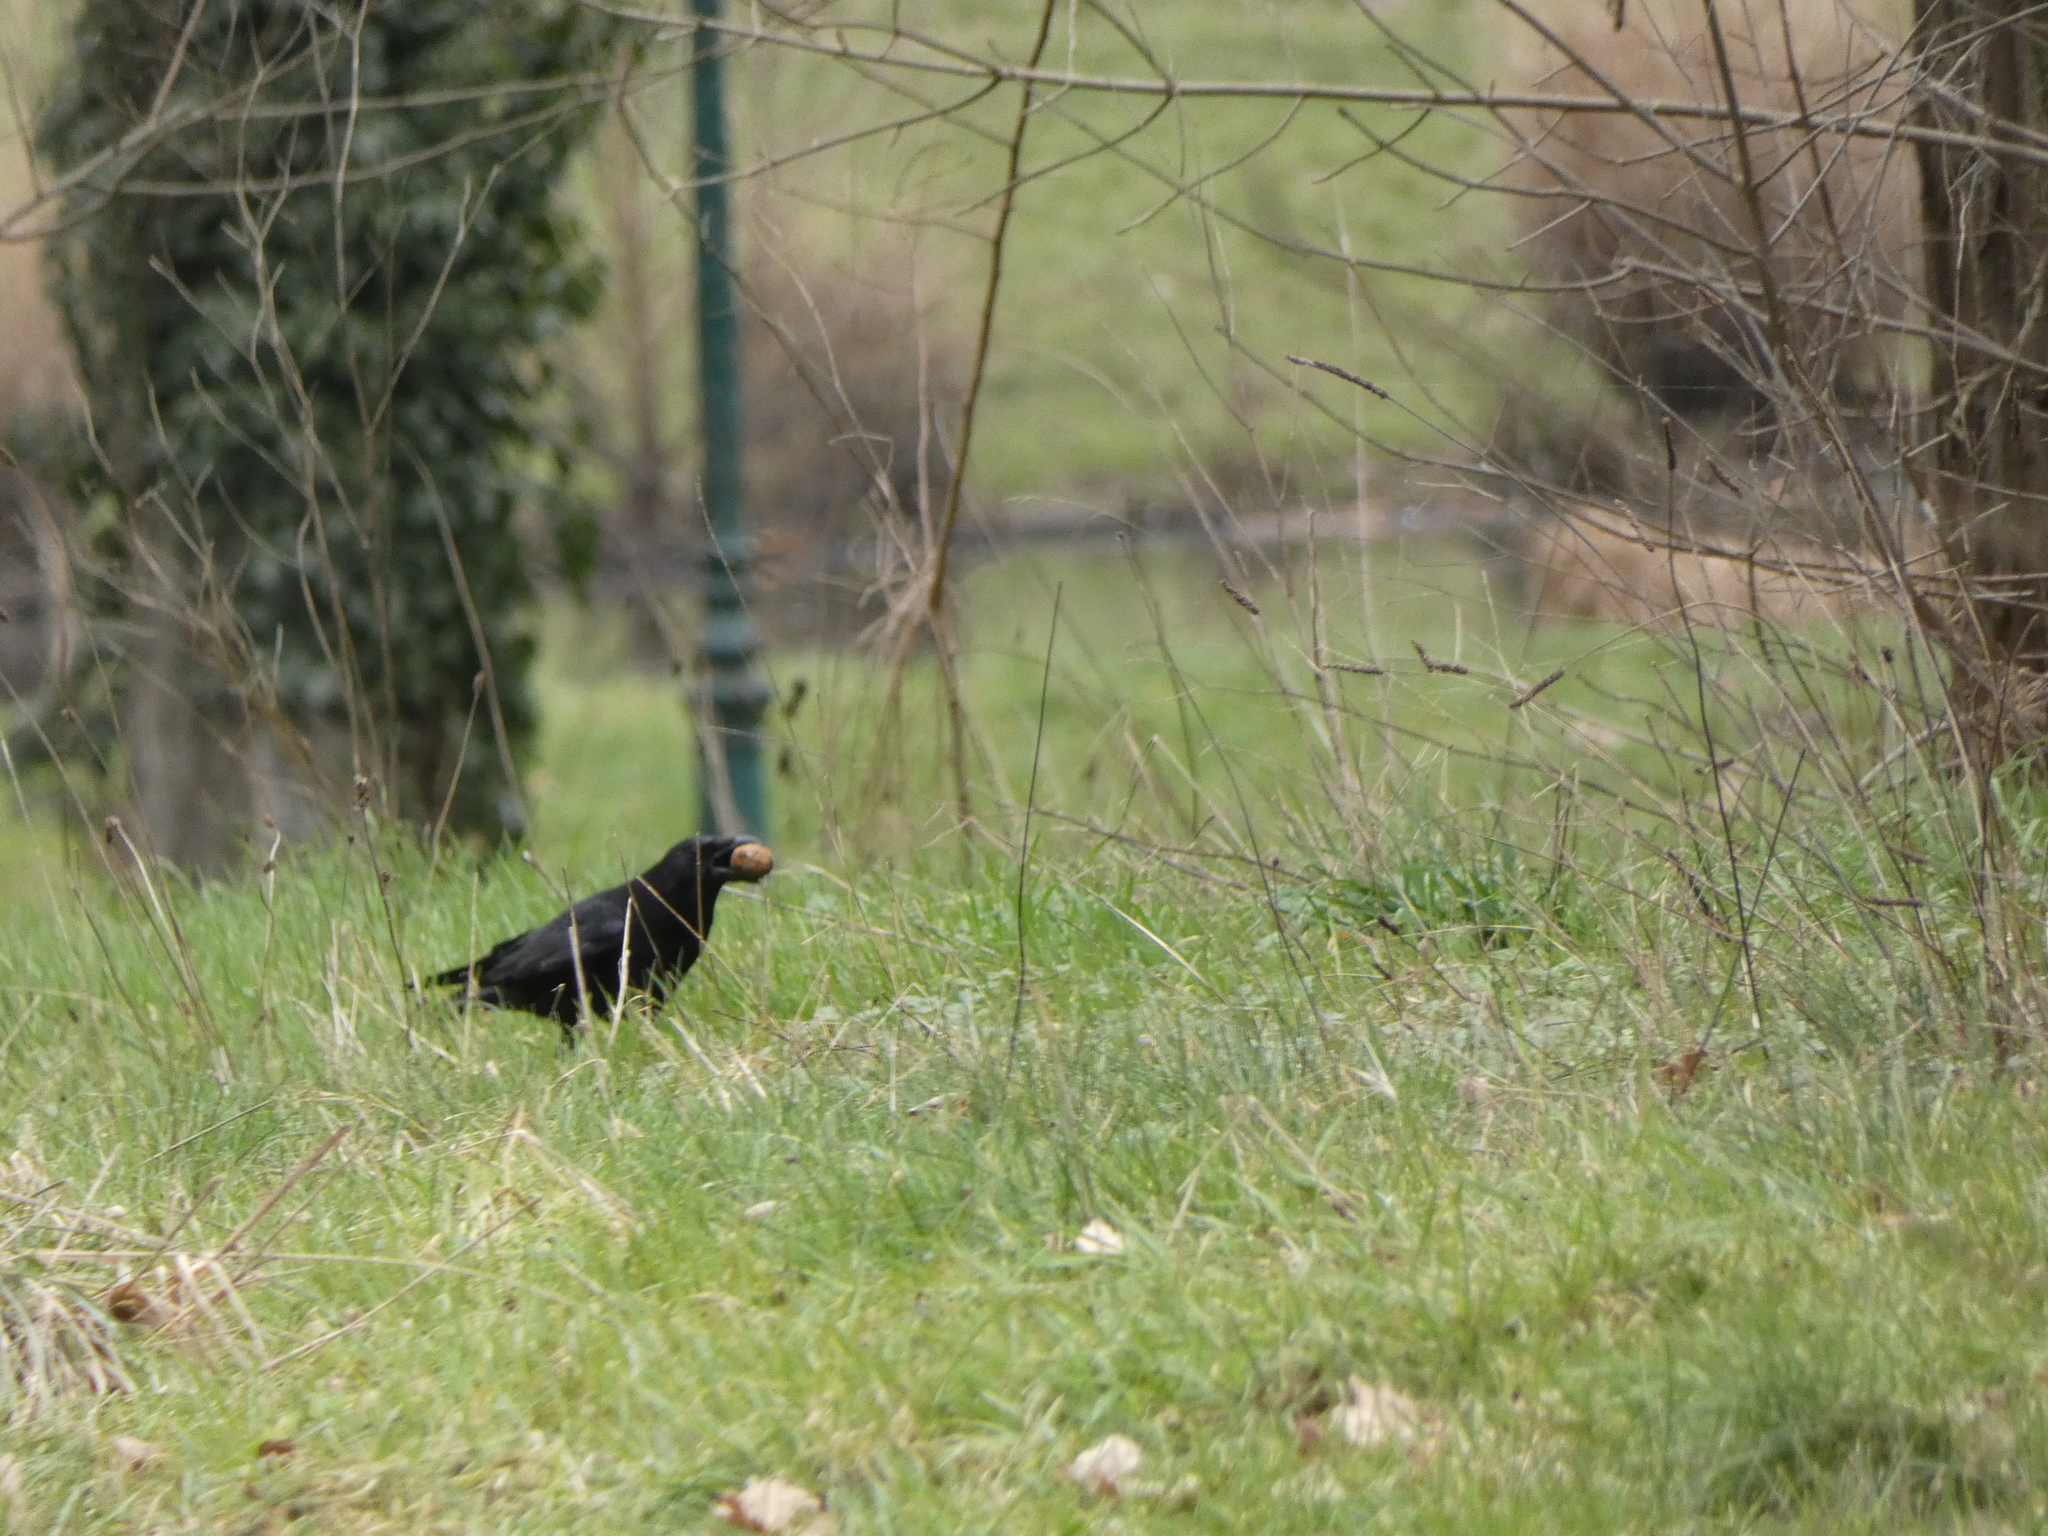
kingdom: Animalia
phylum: Chordata
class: Aves
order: Passeriformes
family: Corvidae
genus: Corvus
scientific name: Corvus corone
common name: Carrion crow
